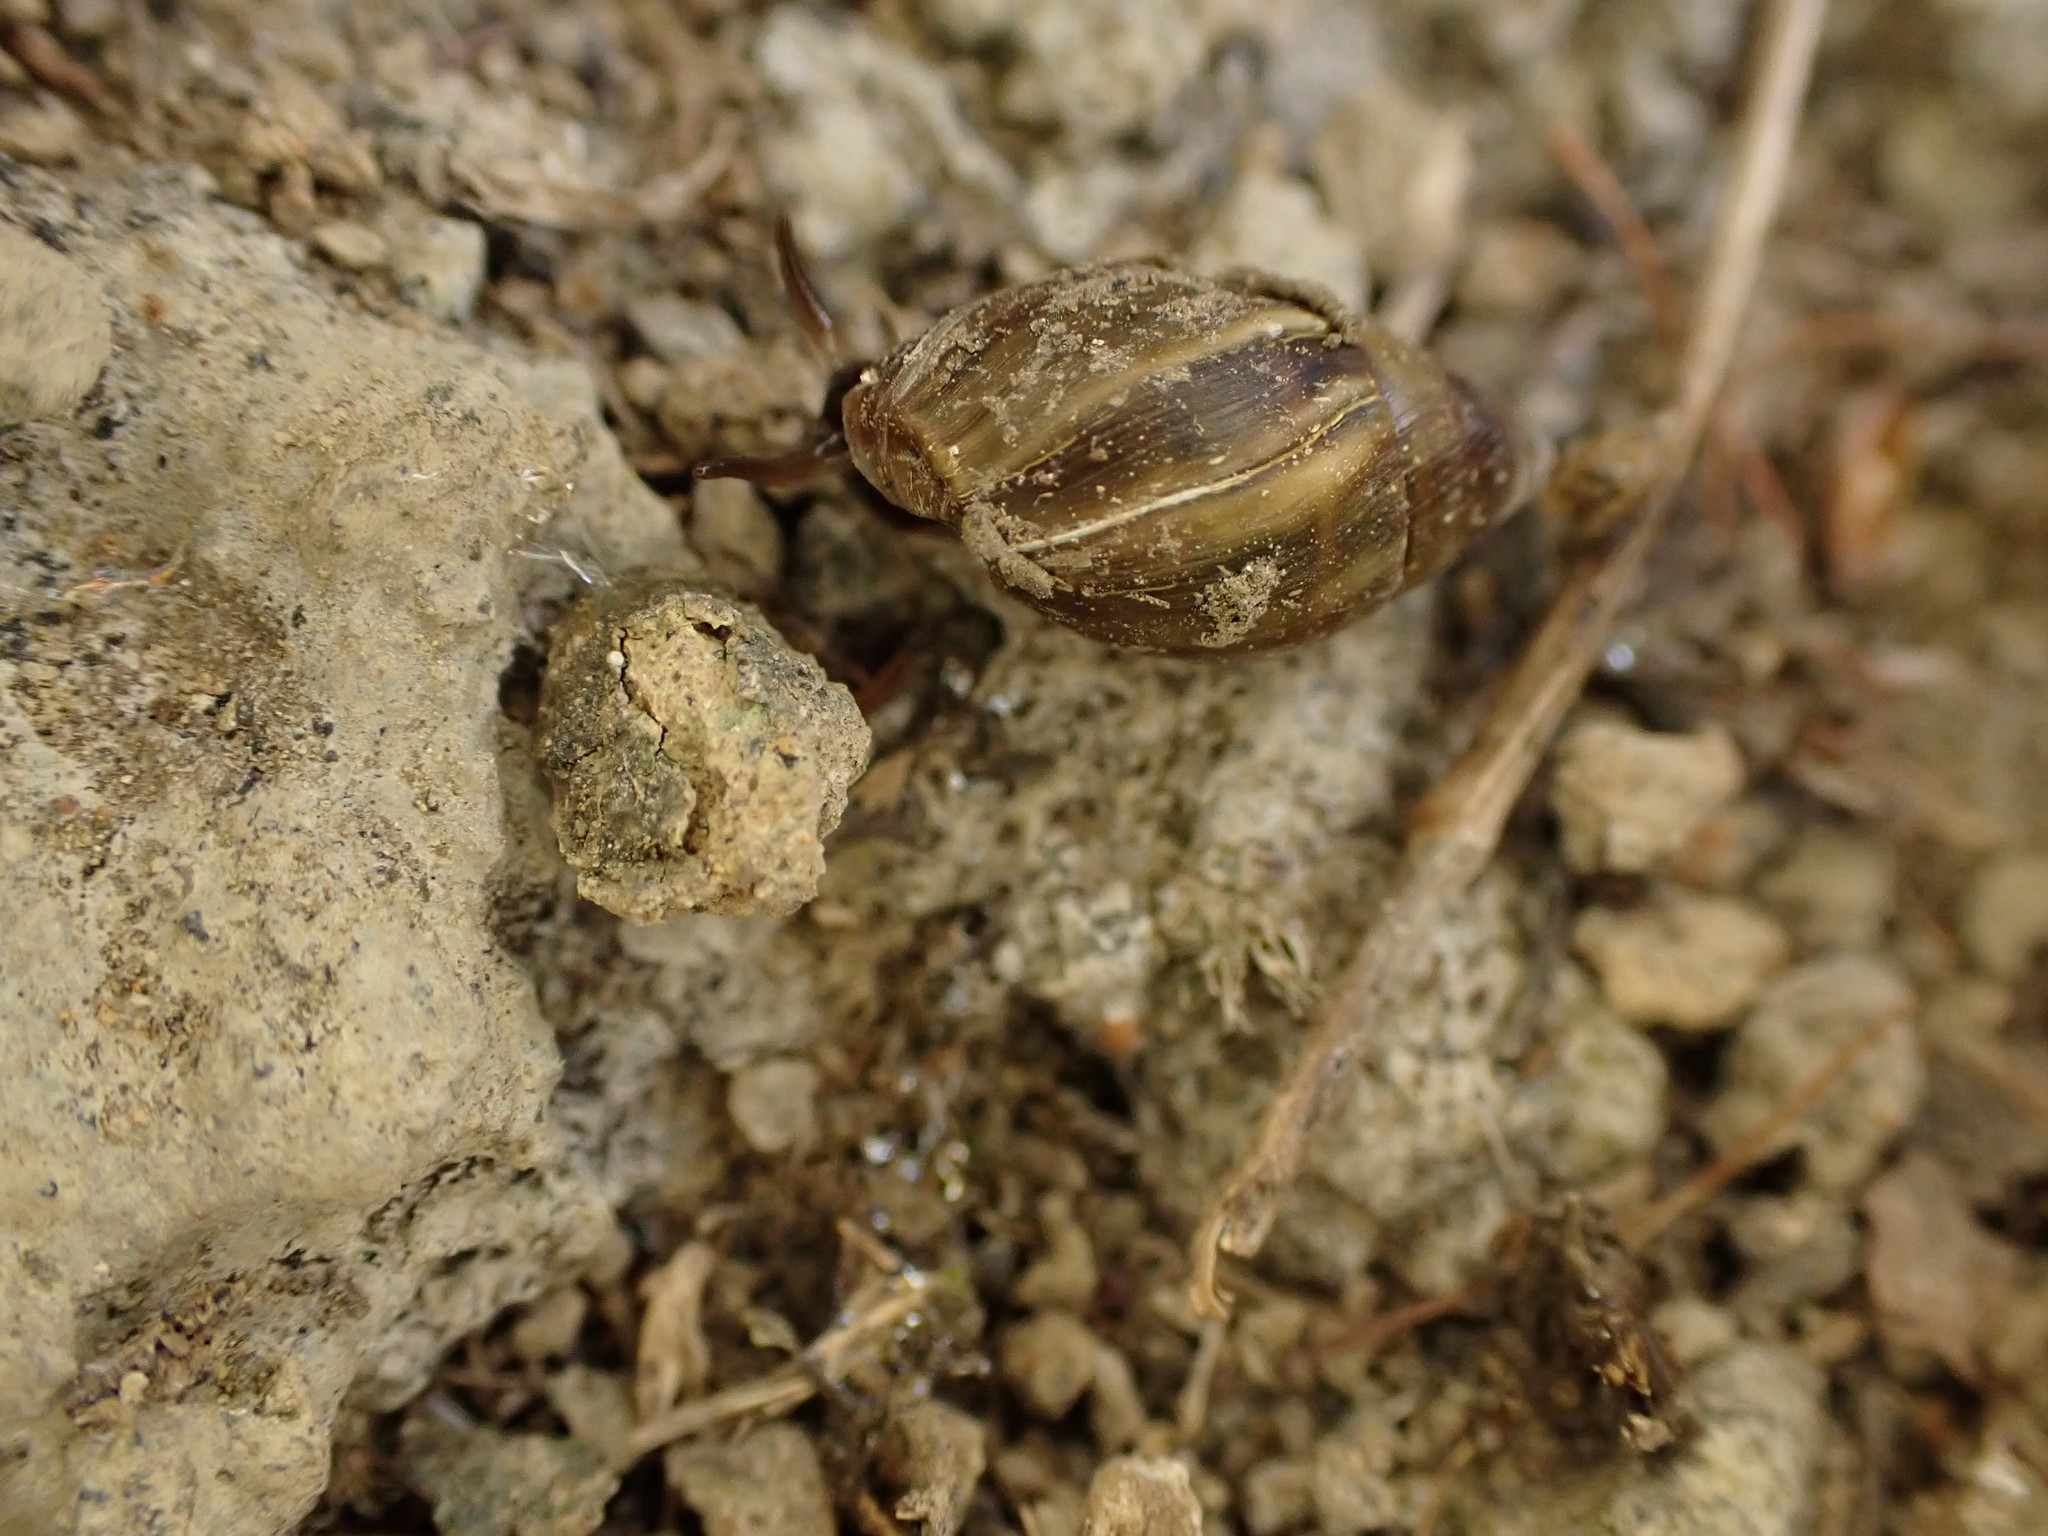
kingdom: Animalia
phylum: Mollusca
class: Gastropoda
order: Ellobiida
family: Ellobiidae
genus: Pleuroloba
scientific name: Pleuroloba costellaris
